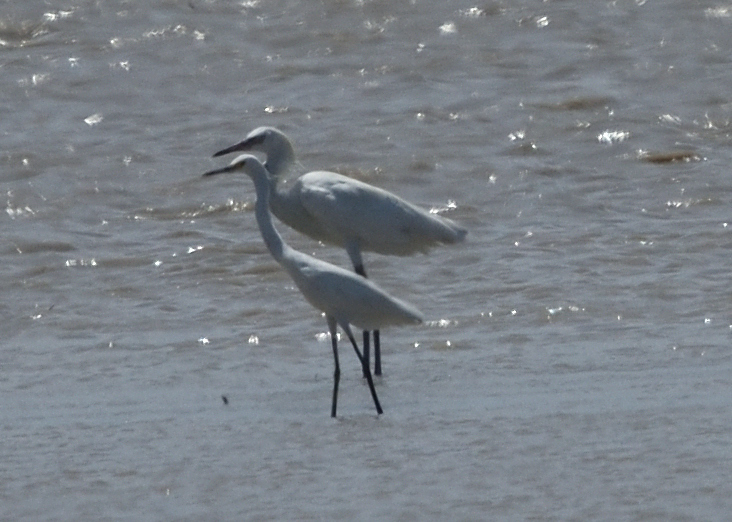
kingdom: Animalia
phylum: Chordata
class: Aves
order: Pelecaniformes
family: Ardeidae
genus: Egretta
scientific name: Egretta rufescens
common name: Reddish egret
